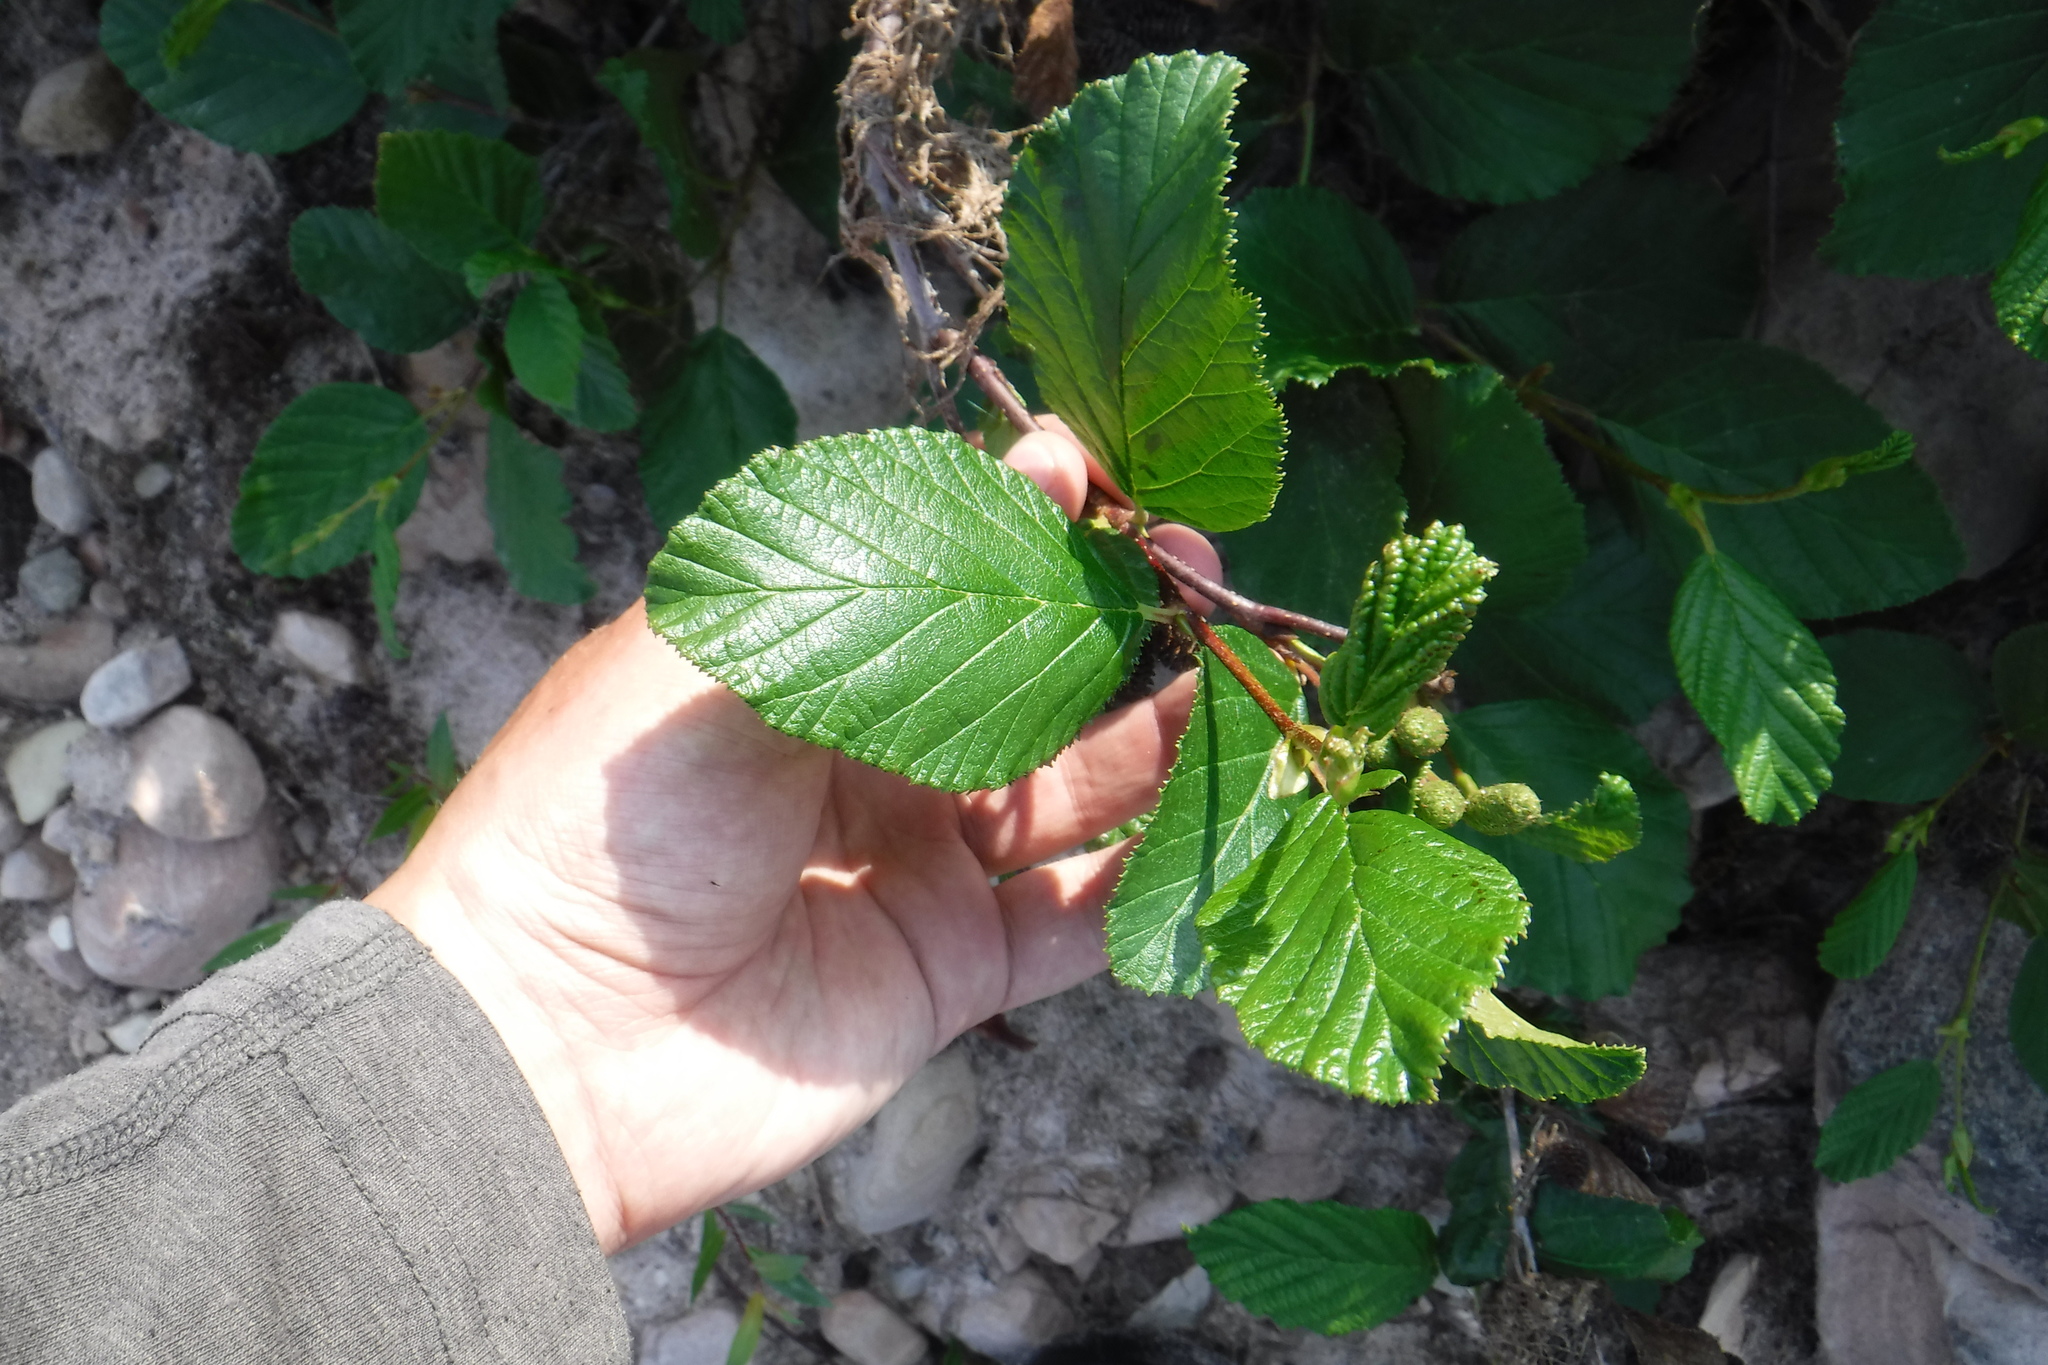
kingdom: Plantae
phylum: Tracheophyta
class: Magnoliopsida
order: Fagales
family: Betulaceae
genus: Alnus
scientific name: Alnus alnobetula
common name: Green alder
